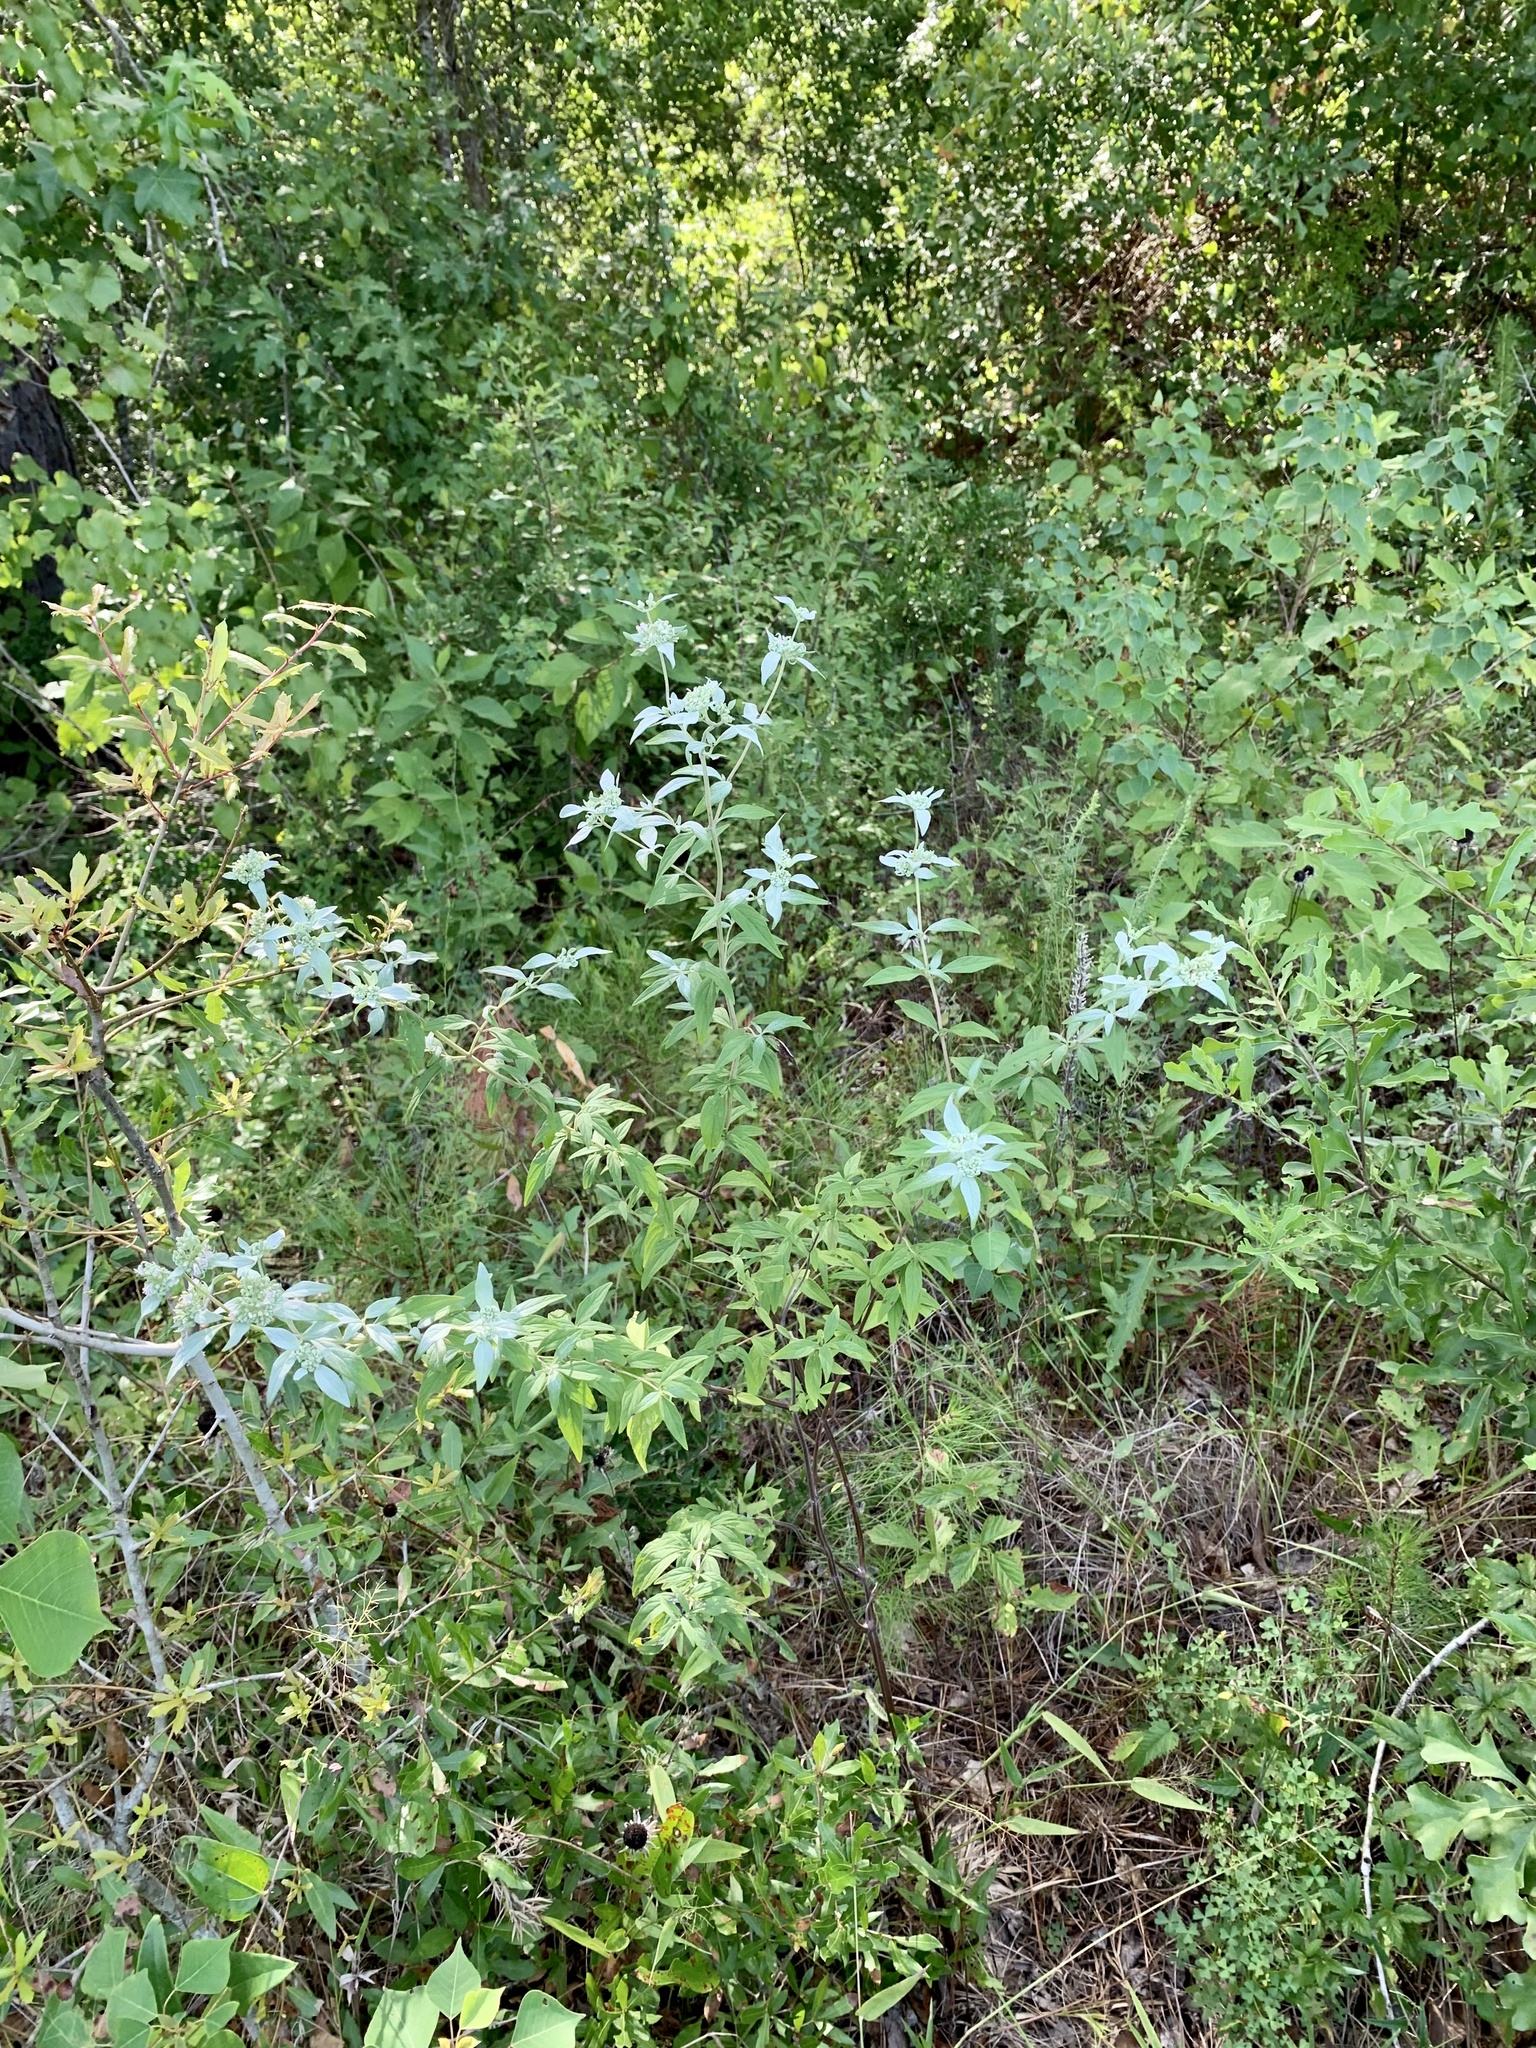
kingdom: Plantae
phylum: Tracheophyta
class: Magnoliopsida
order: Lamiales
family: Lamiaceae
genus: Pycnanthemum
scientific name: Pycnanthemum albescens
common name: White-leaf mountain-mint
